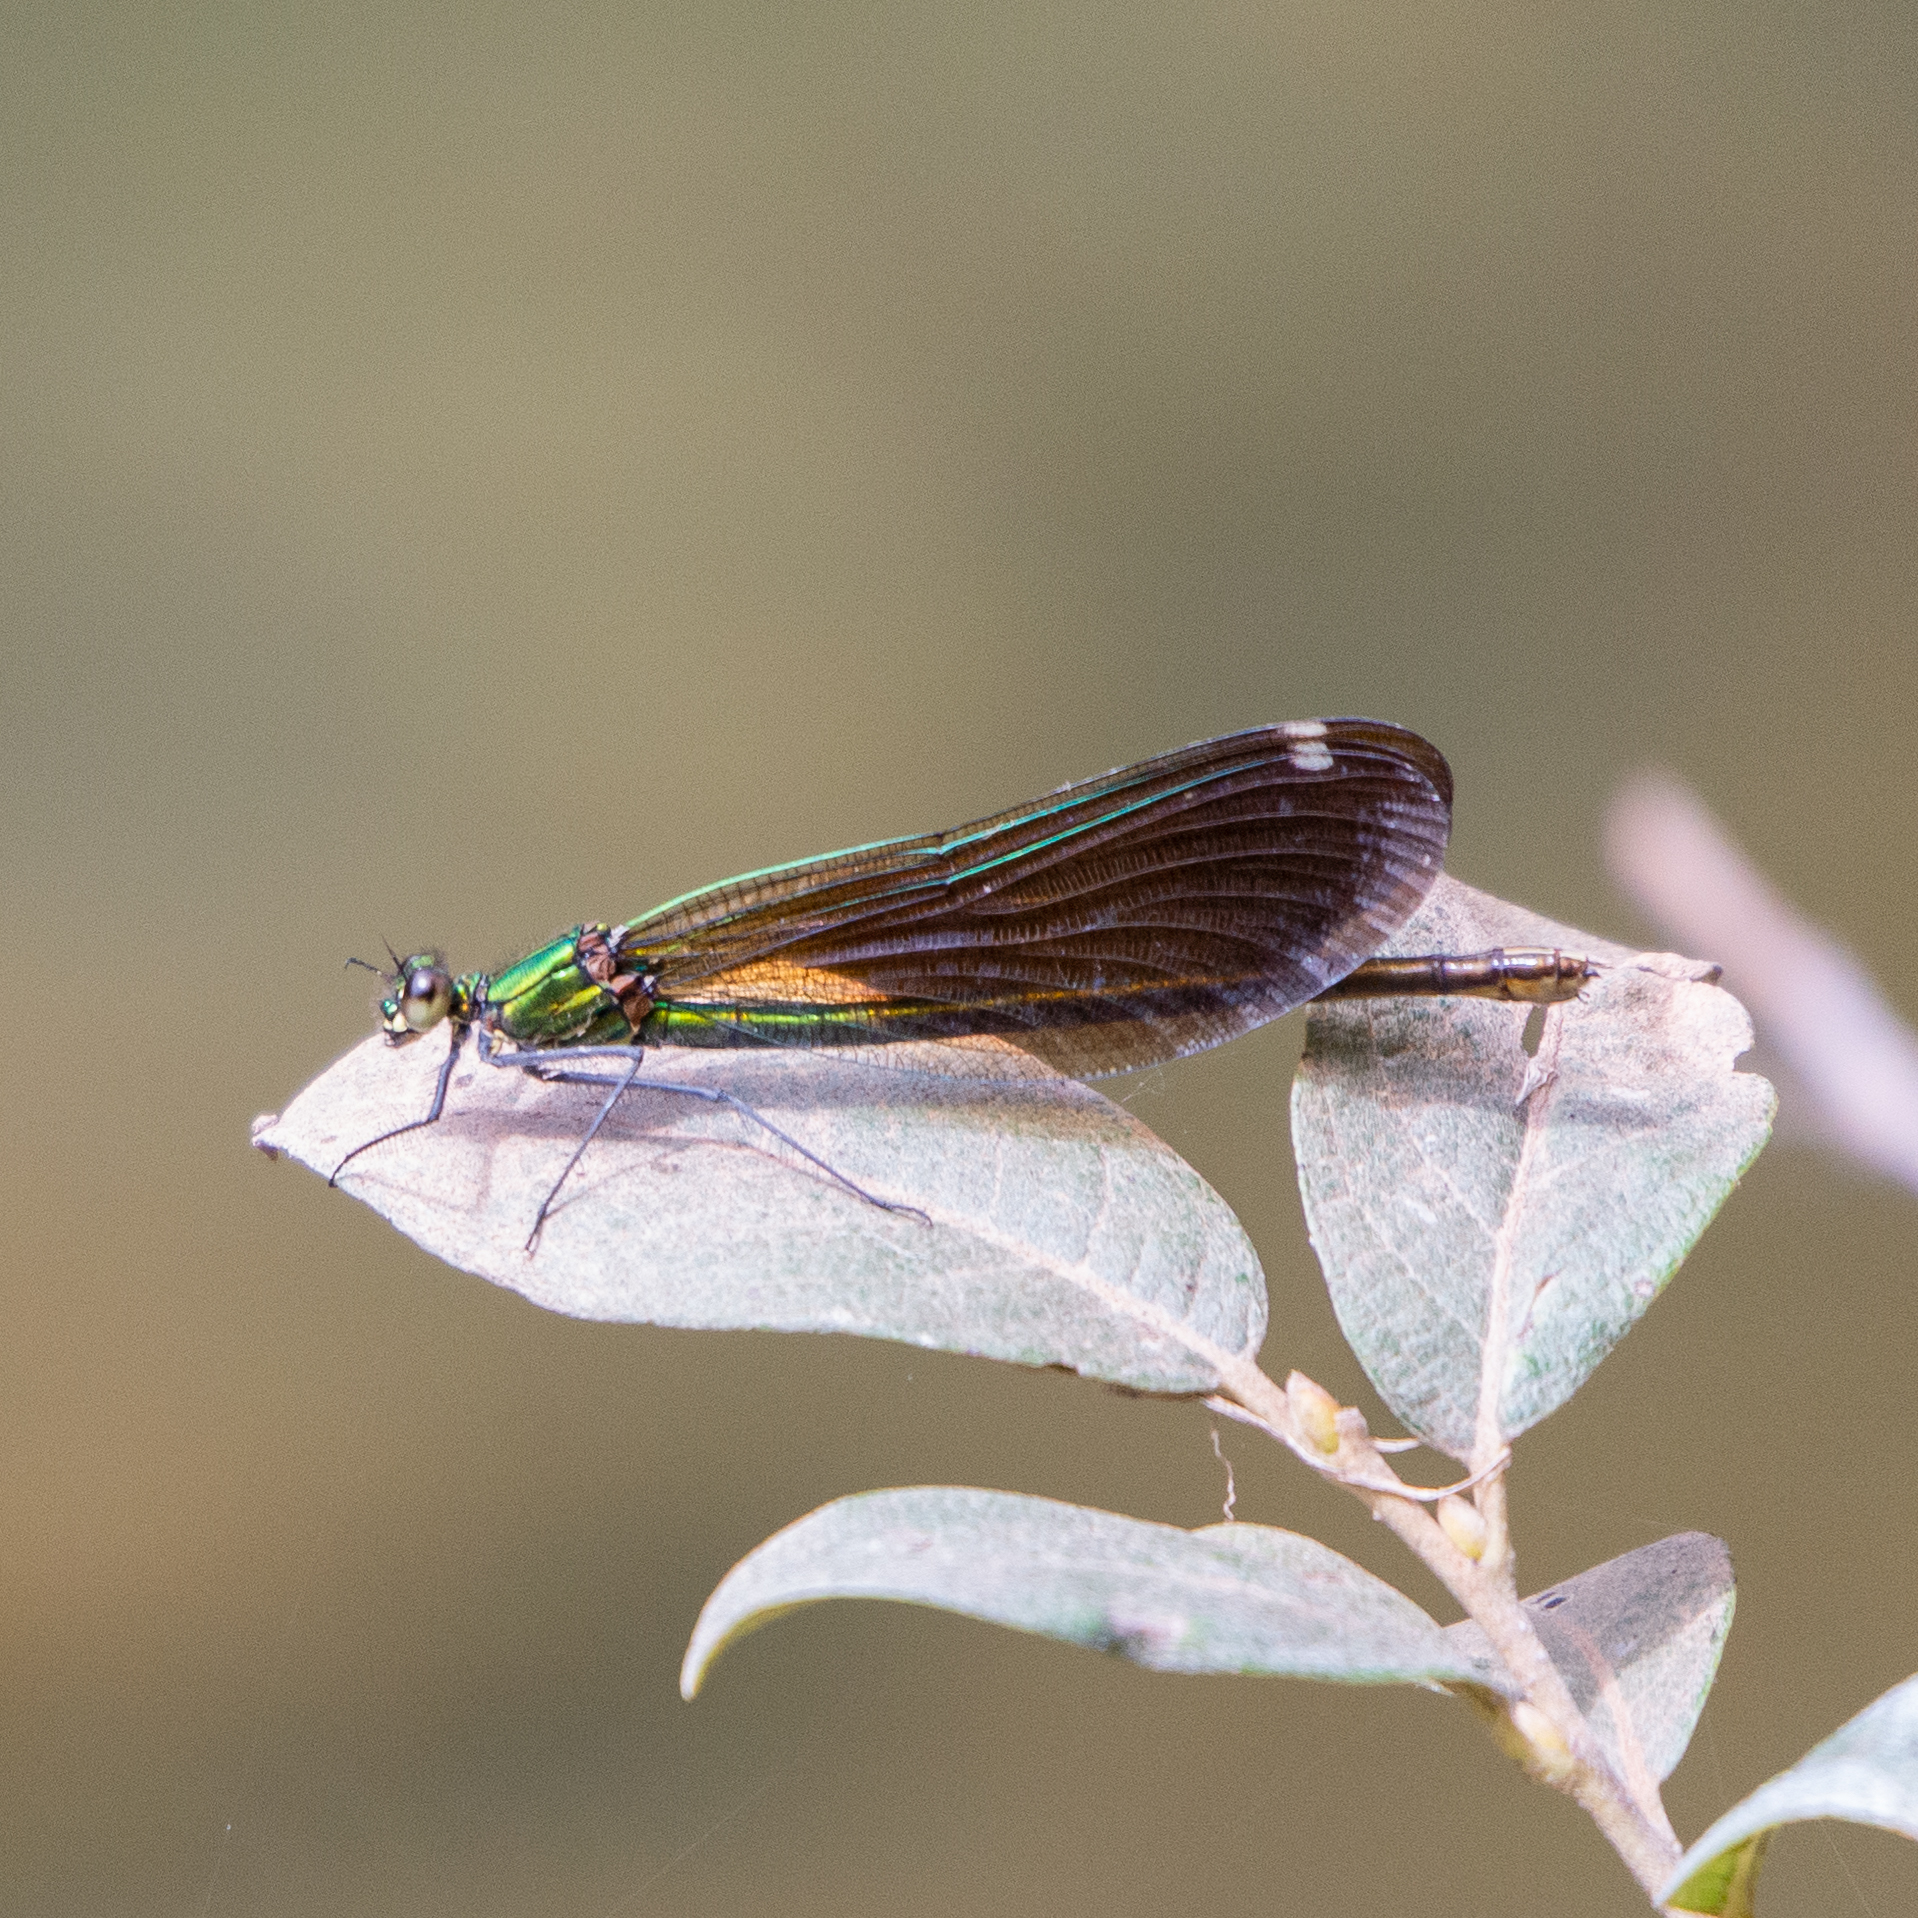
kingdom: Animalia
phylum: Arthropoda
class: Insecta
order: Odonata
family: Calopterygidae
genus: Calopteryx
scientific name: Calopteryx virgo
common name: Beautiful demoiselle
